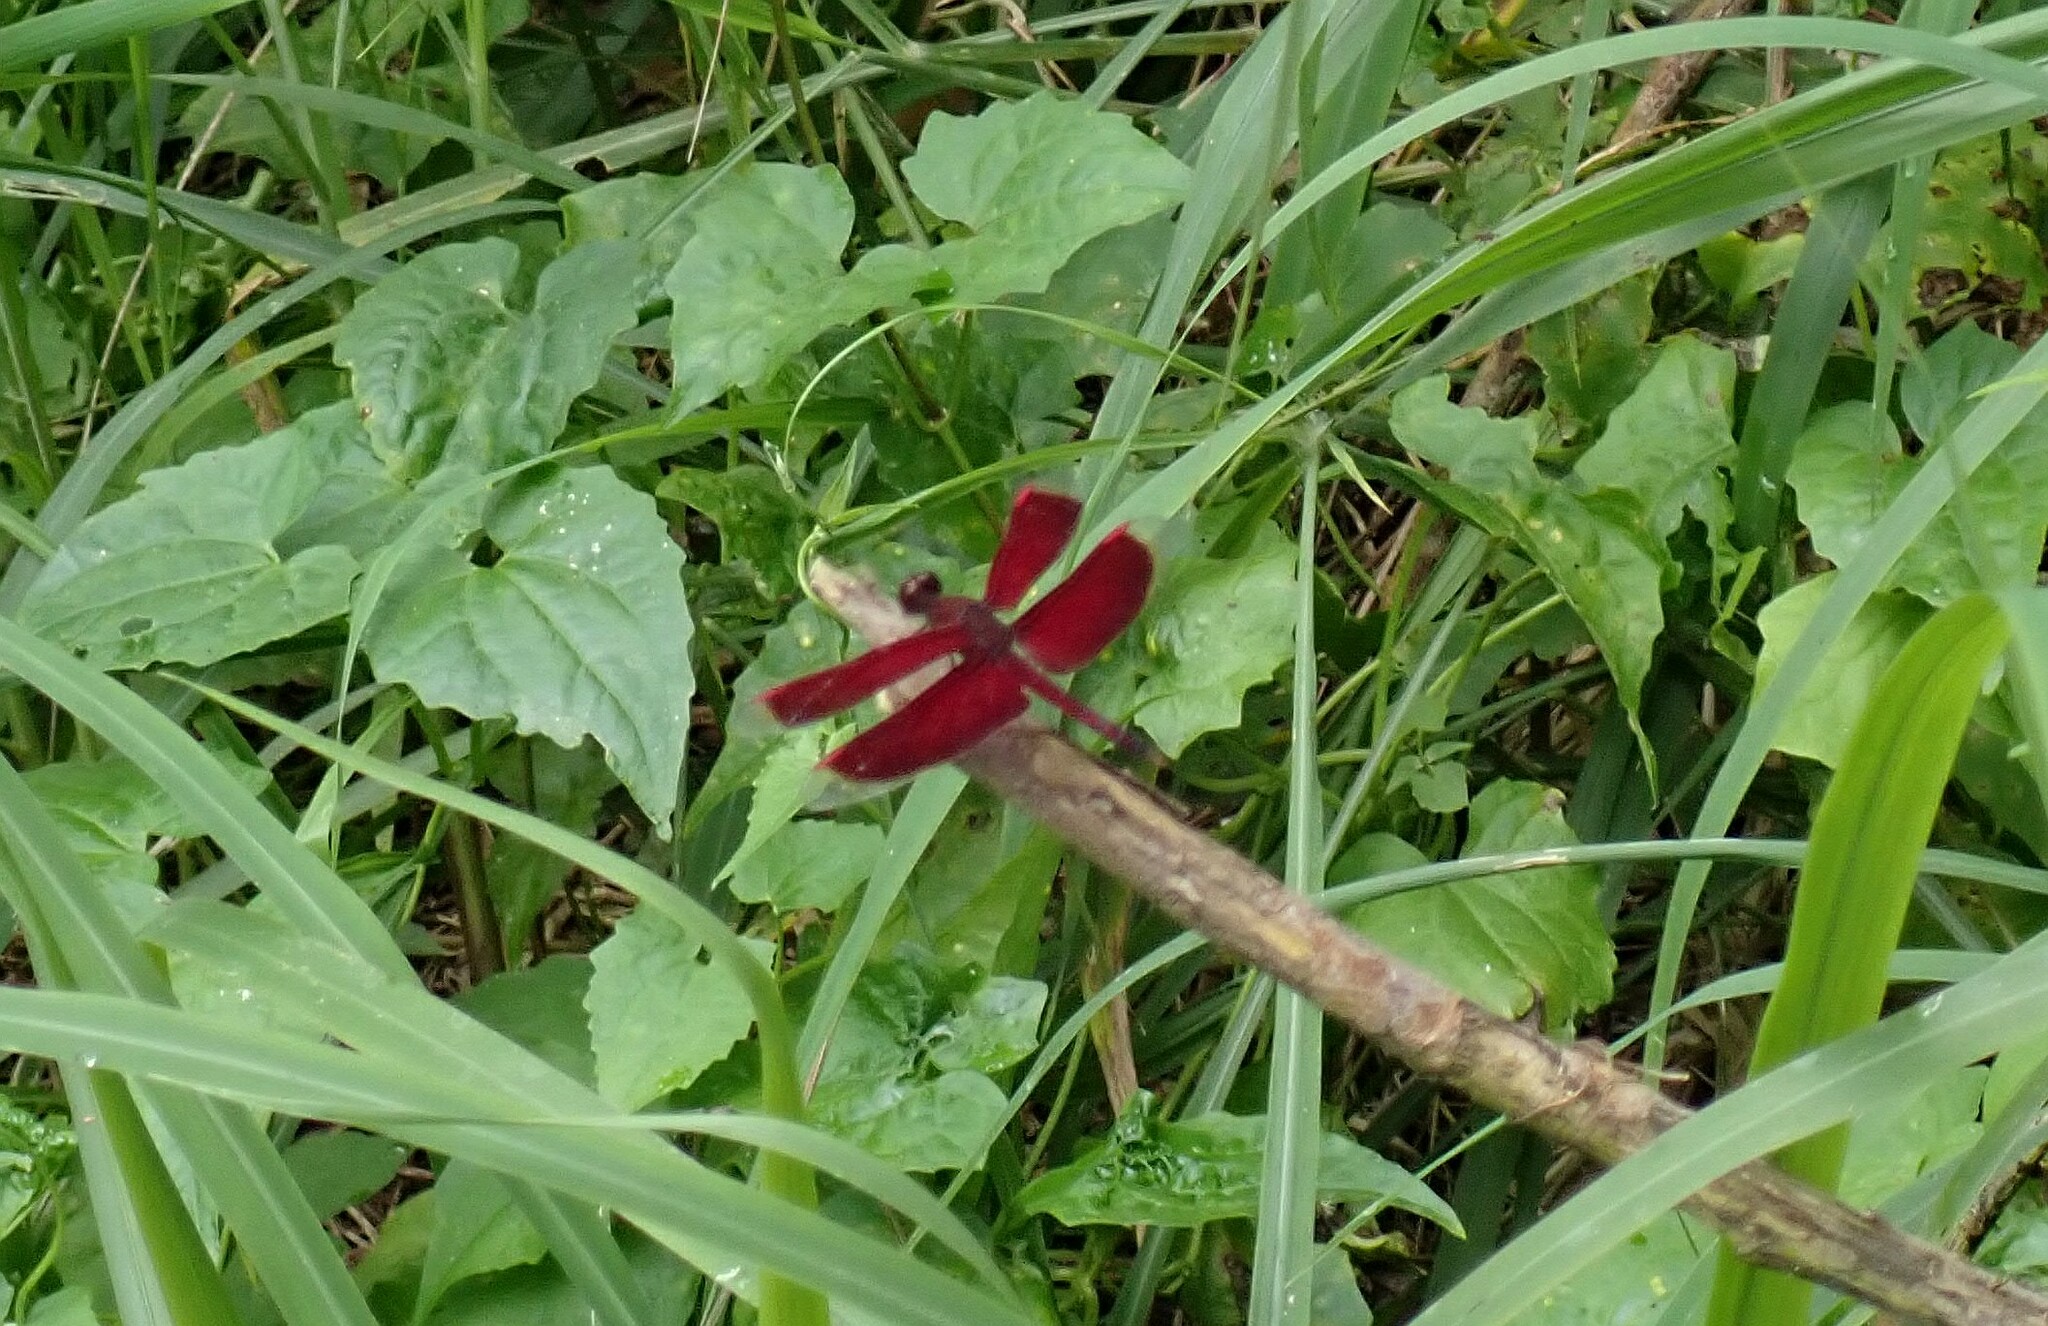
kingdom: Animalia
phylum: Arthropoda
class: Insecta
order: Odonata
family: Libellulidae
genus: Neurothemis
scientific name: Neurothemis stigmatizans
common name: Painted grasshawk
